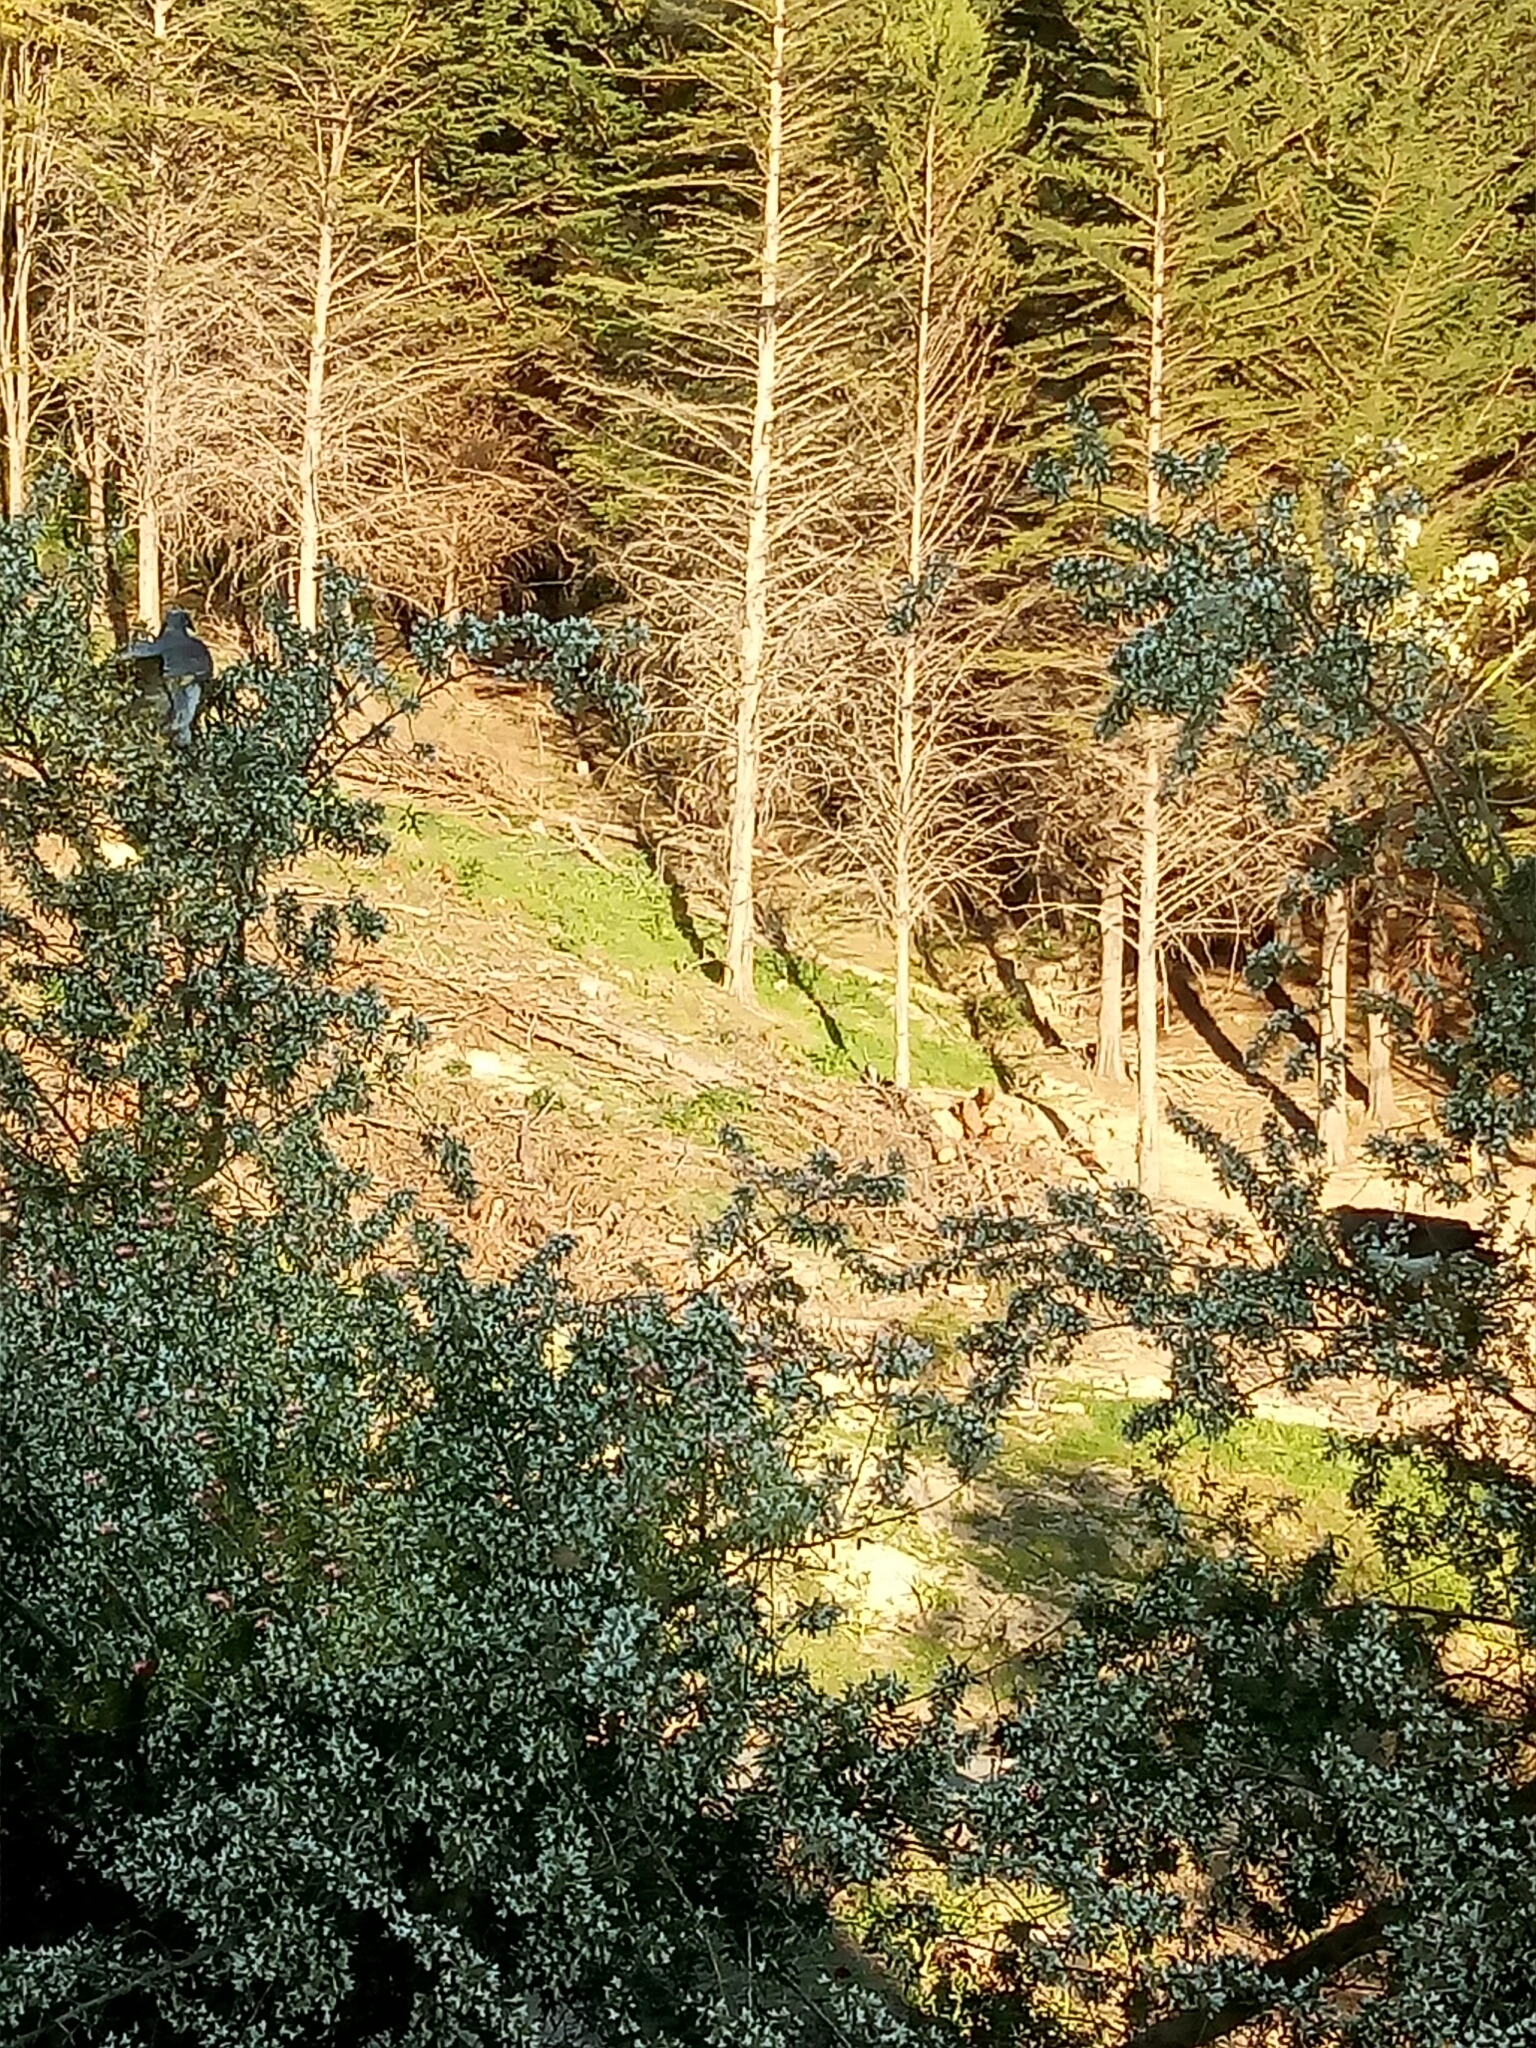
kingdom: Animalia
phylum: Chordata
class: Aves
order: Columbiformes
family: Columbidae
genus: Hemiphaga
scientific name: Hemiphaga novaeseelandiae
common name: New zealand pigeon
